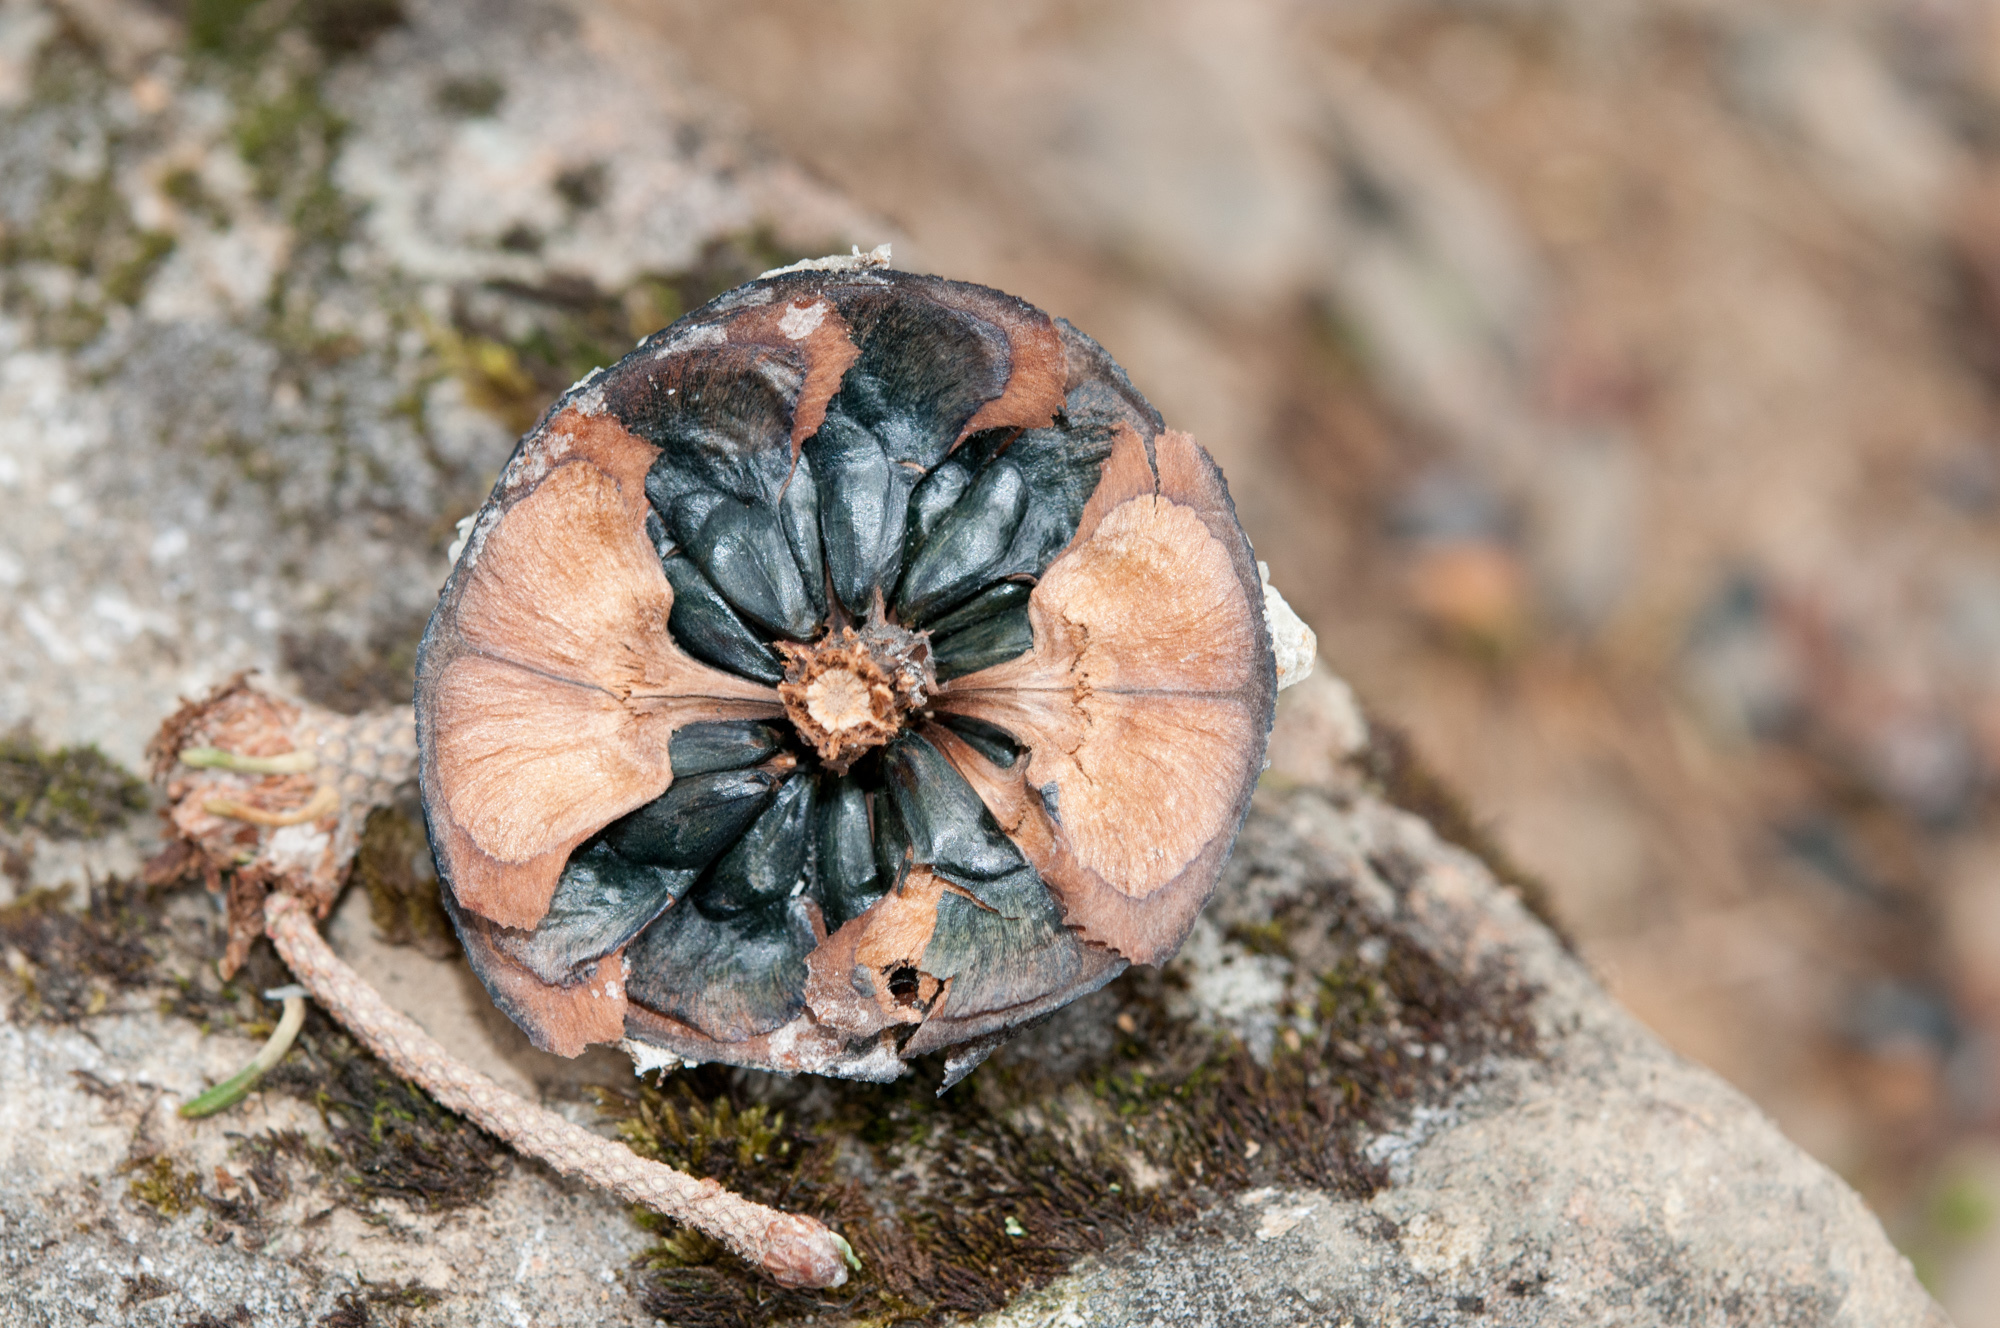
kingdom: Plantae
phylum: Tracheophyta
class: Pinopsida
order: Pinales
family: Pinaceae
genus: Abies
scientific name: Abies kawakamii
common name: Taiwan fir
